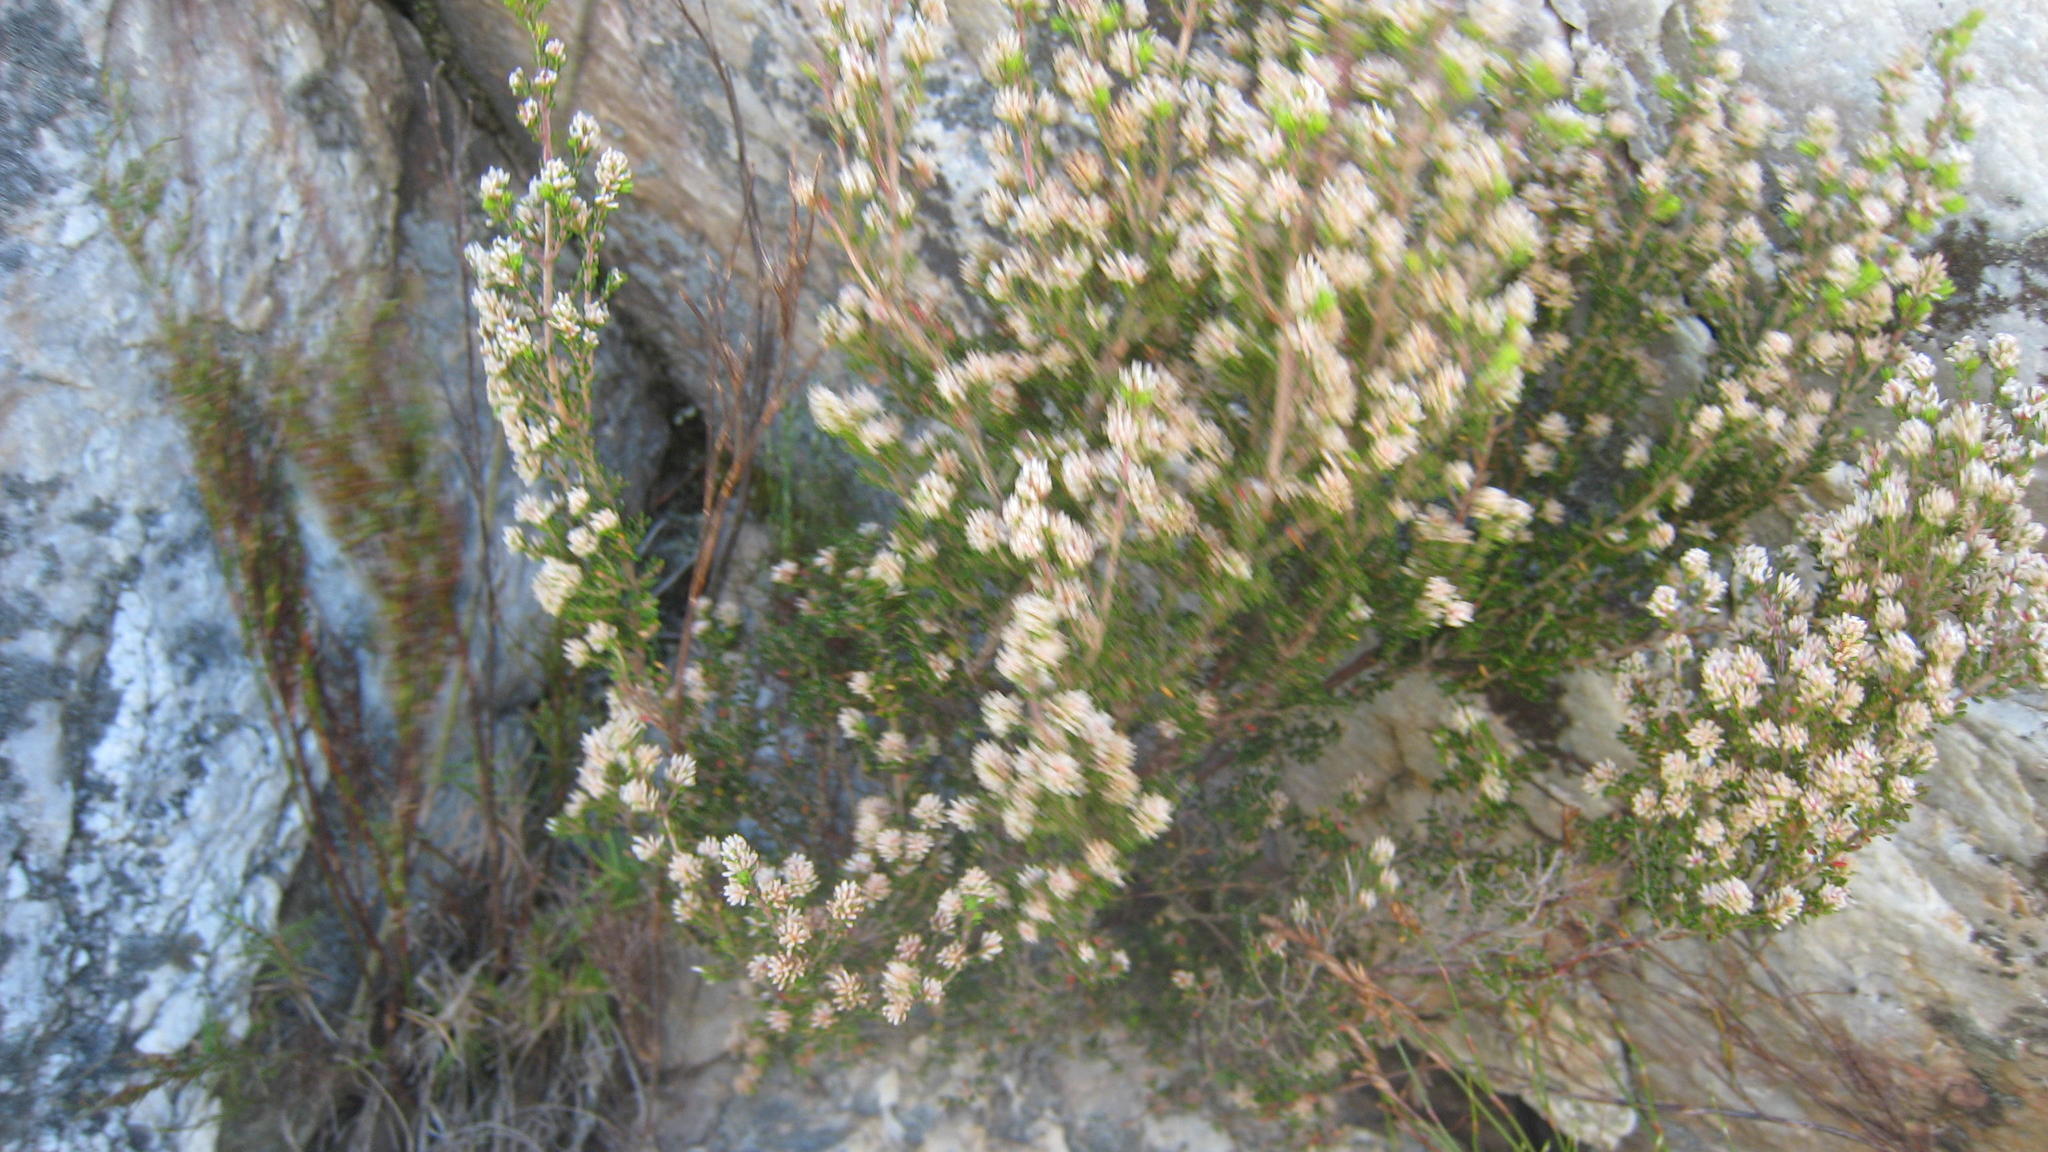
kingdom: Plantae
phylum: Tracheophyta
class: Magnoliopsida
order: Ericales
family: Ericaceae
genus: Erica
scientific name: Erica benthamiana
